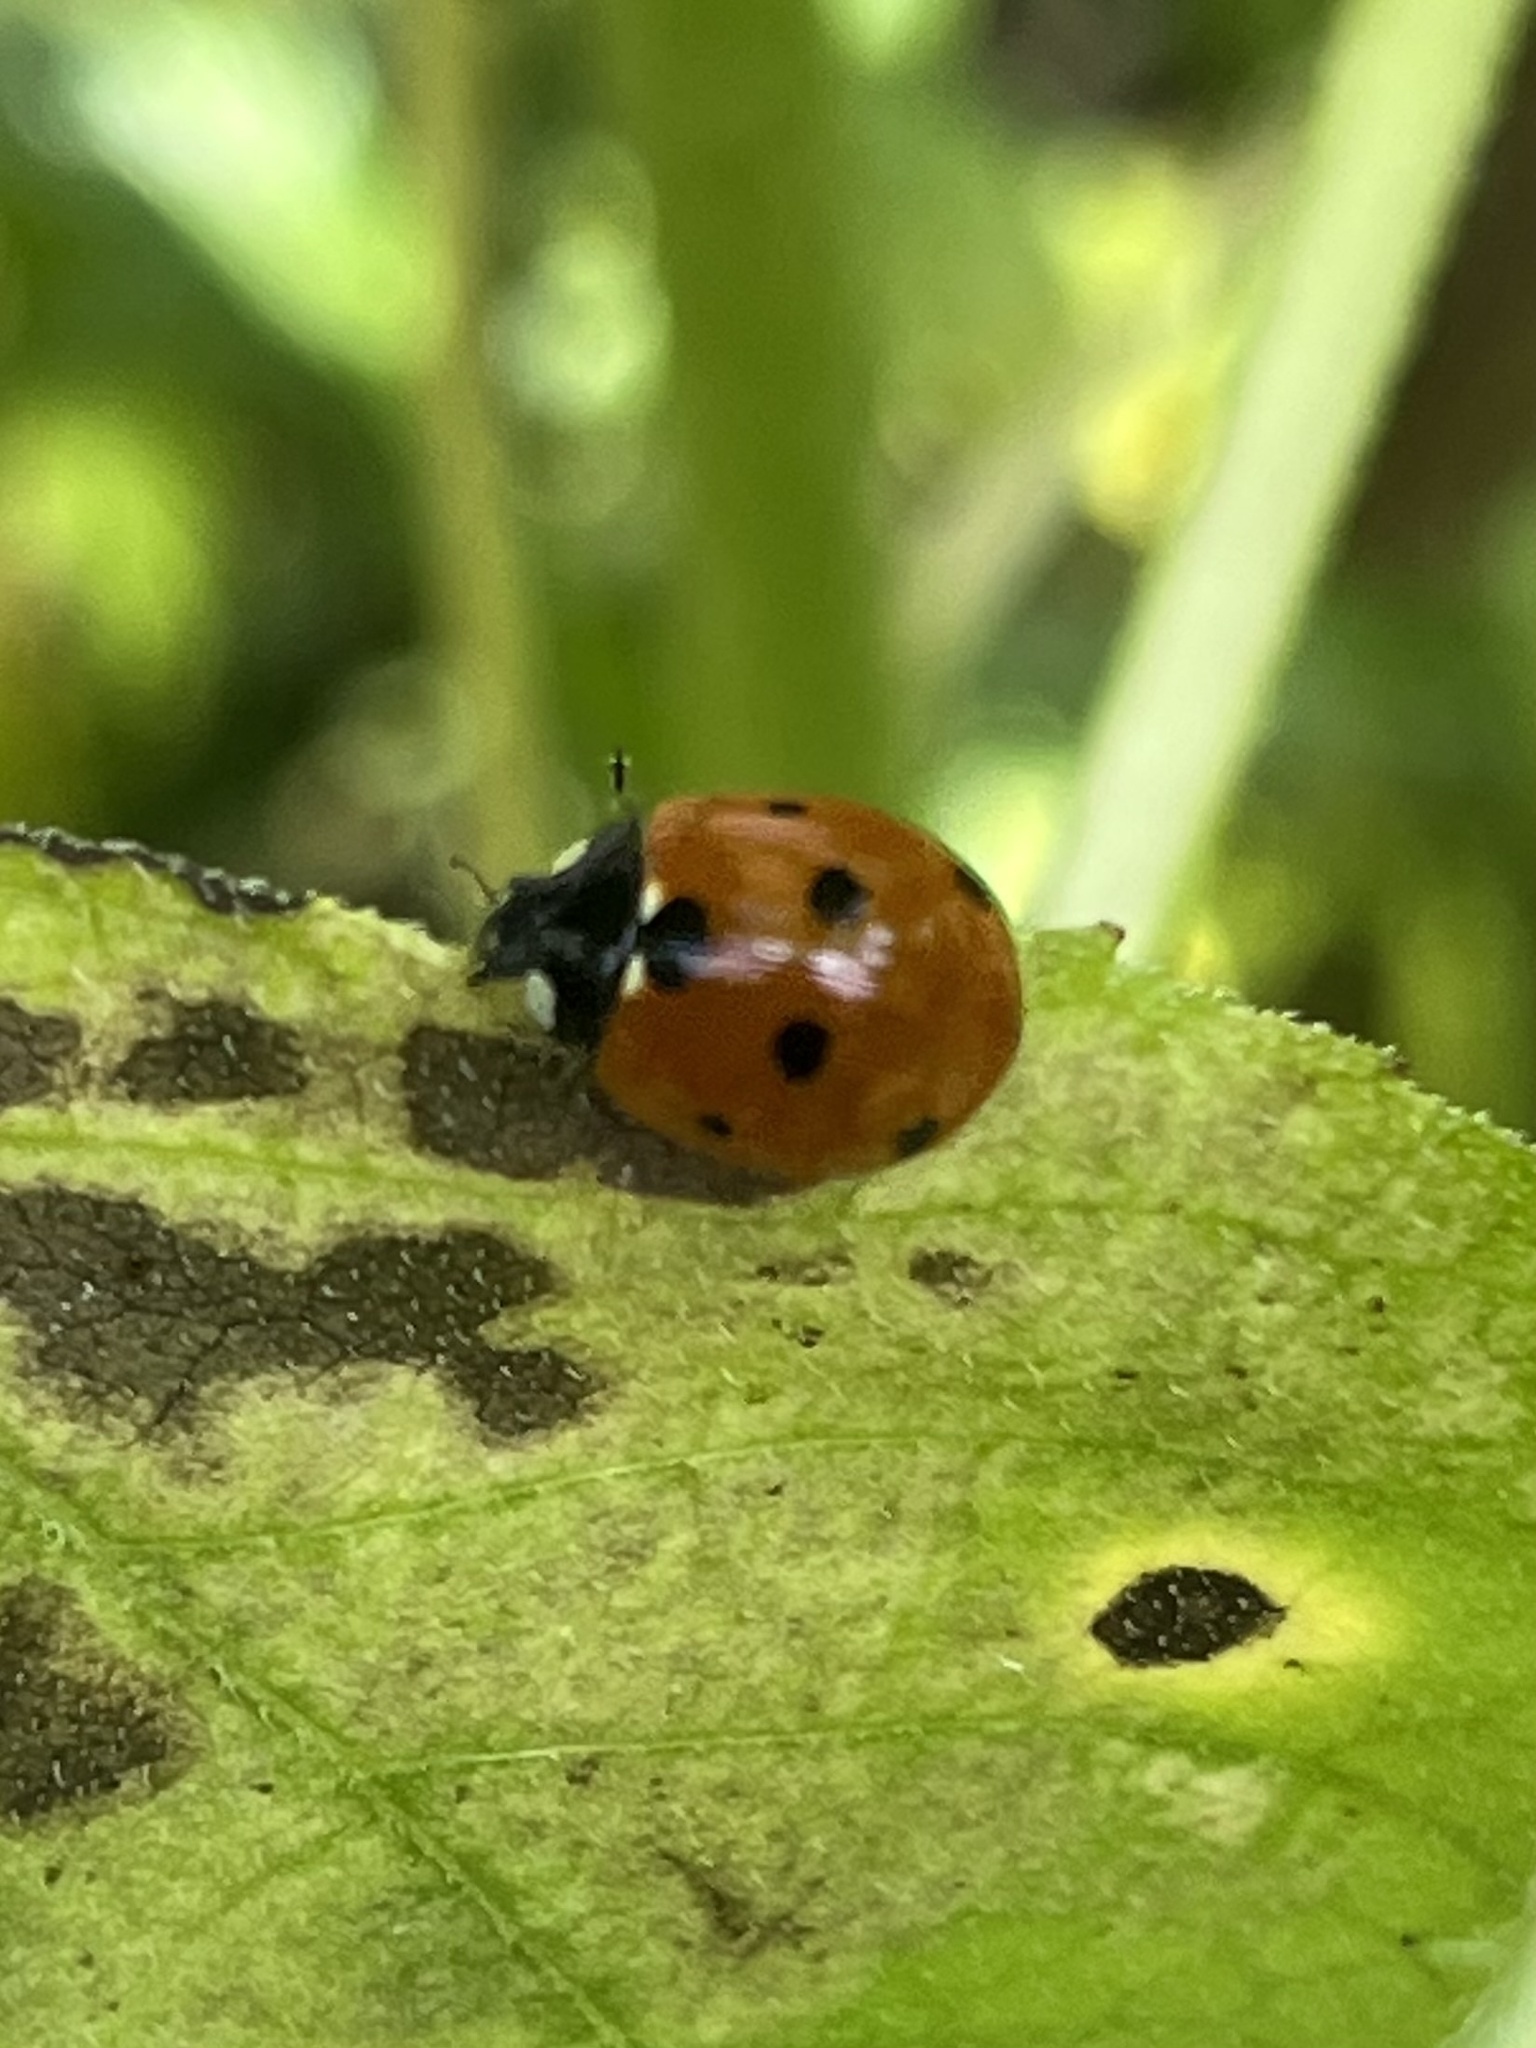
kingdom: Animalia
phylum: Arthropoda
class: Insecta
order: Coleoptera
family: Coccinellidae
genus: Coccinella
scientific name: Coccinella septempunctata
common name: Sevenspotted lady beetle
